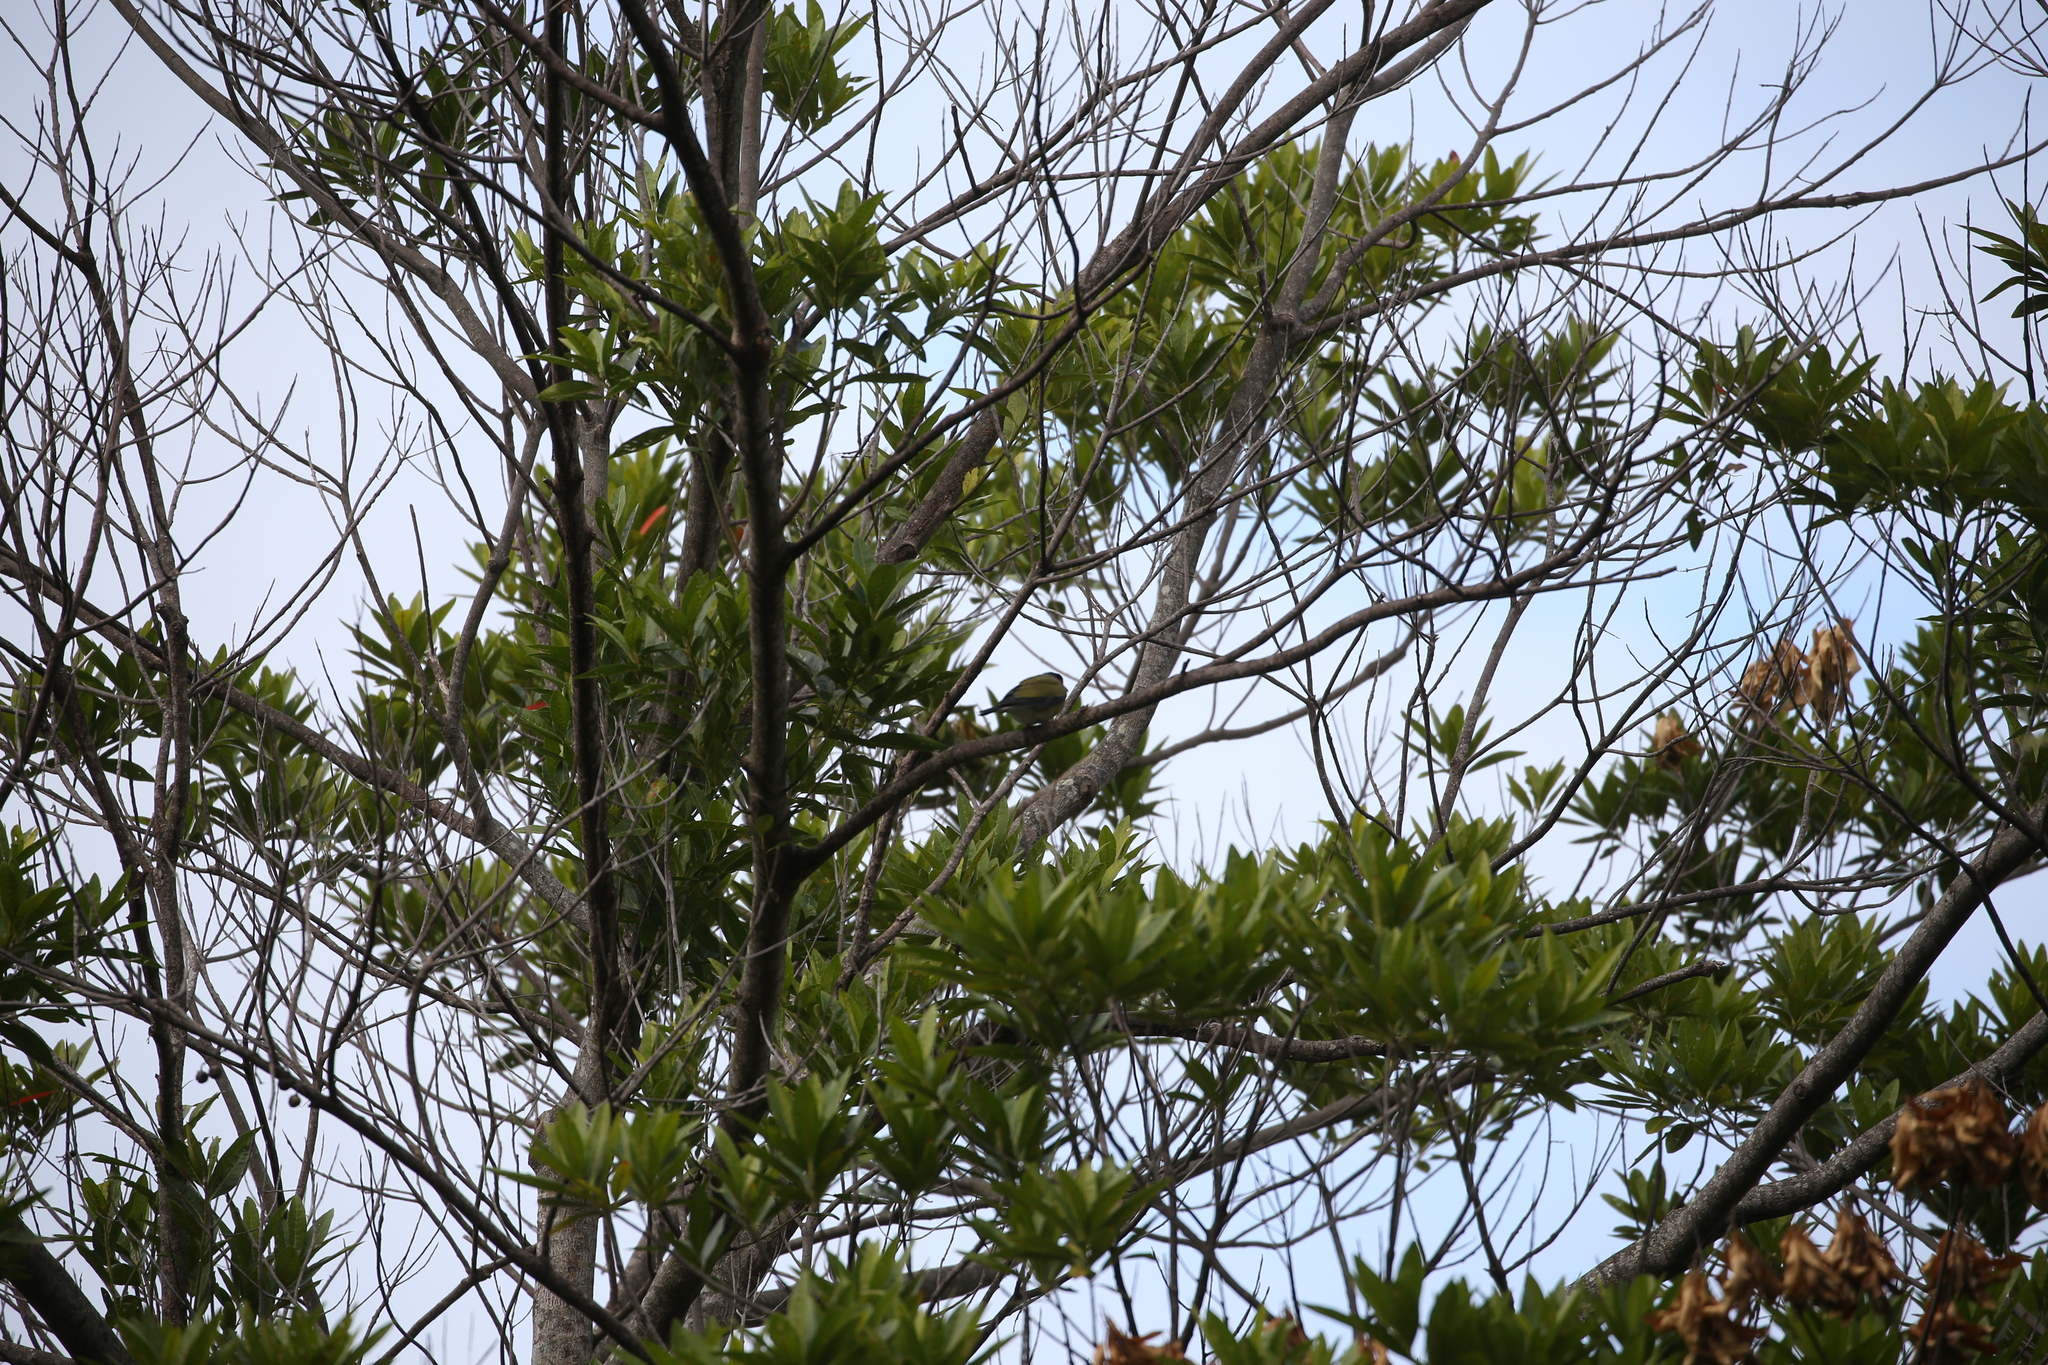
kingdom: Animalia
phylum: Chordata
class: Aves
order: Passeriformes
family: Oriolidae
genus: Sphecotheres
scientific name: Sphecotheres vieilloti
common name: Australasian figbird
